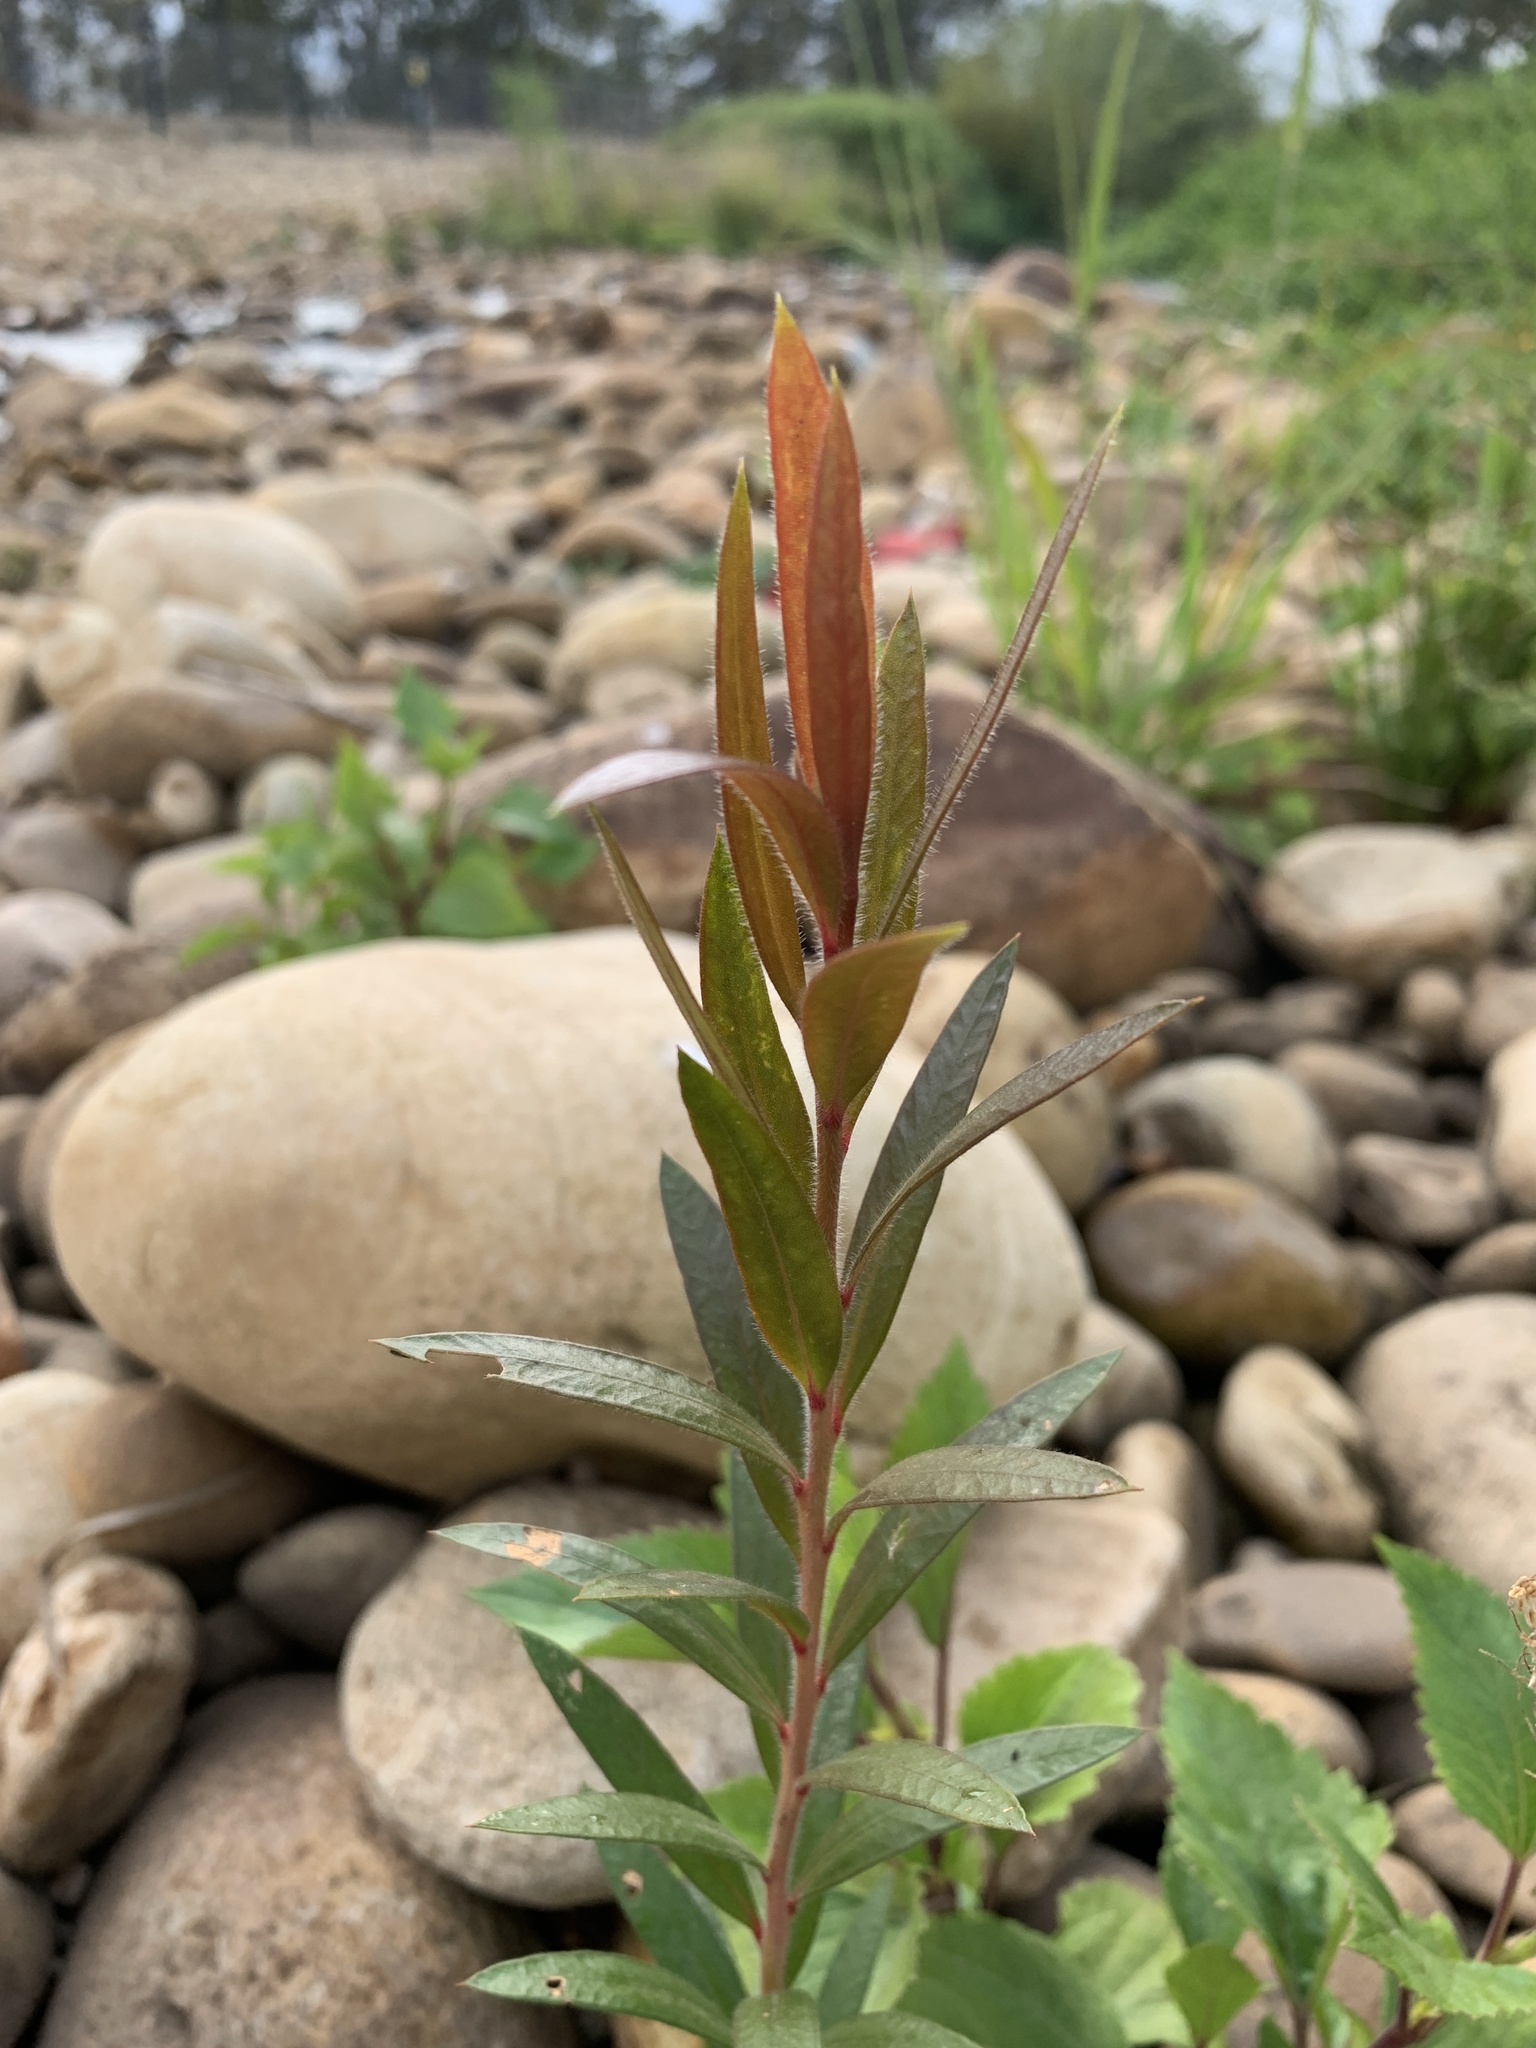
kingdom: Plantae
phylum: Tracheophyta
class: Magnoliopsida
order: Myrtales
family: Myrtaceae
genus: Callistemon
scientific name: Callistemon viminalis
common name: Drooping bottlebrush
